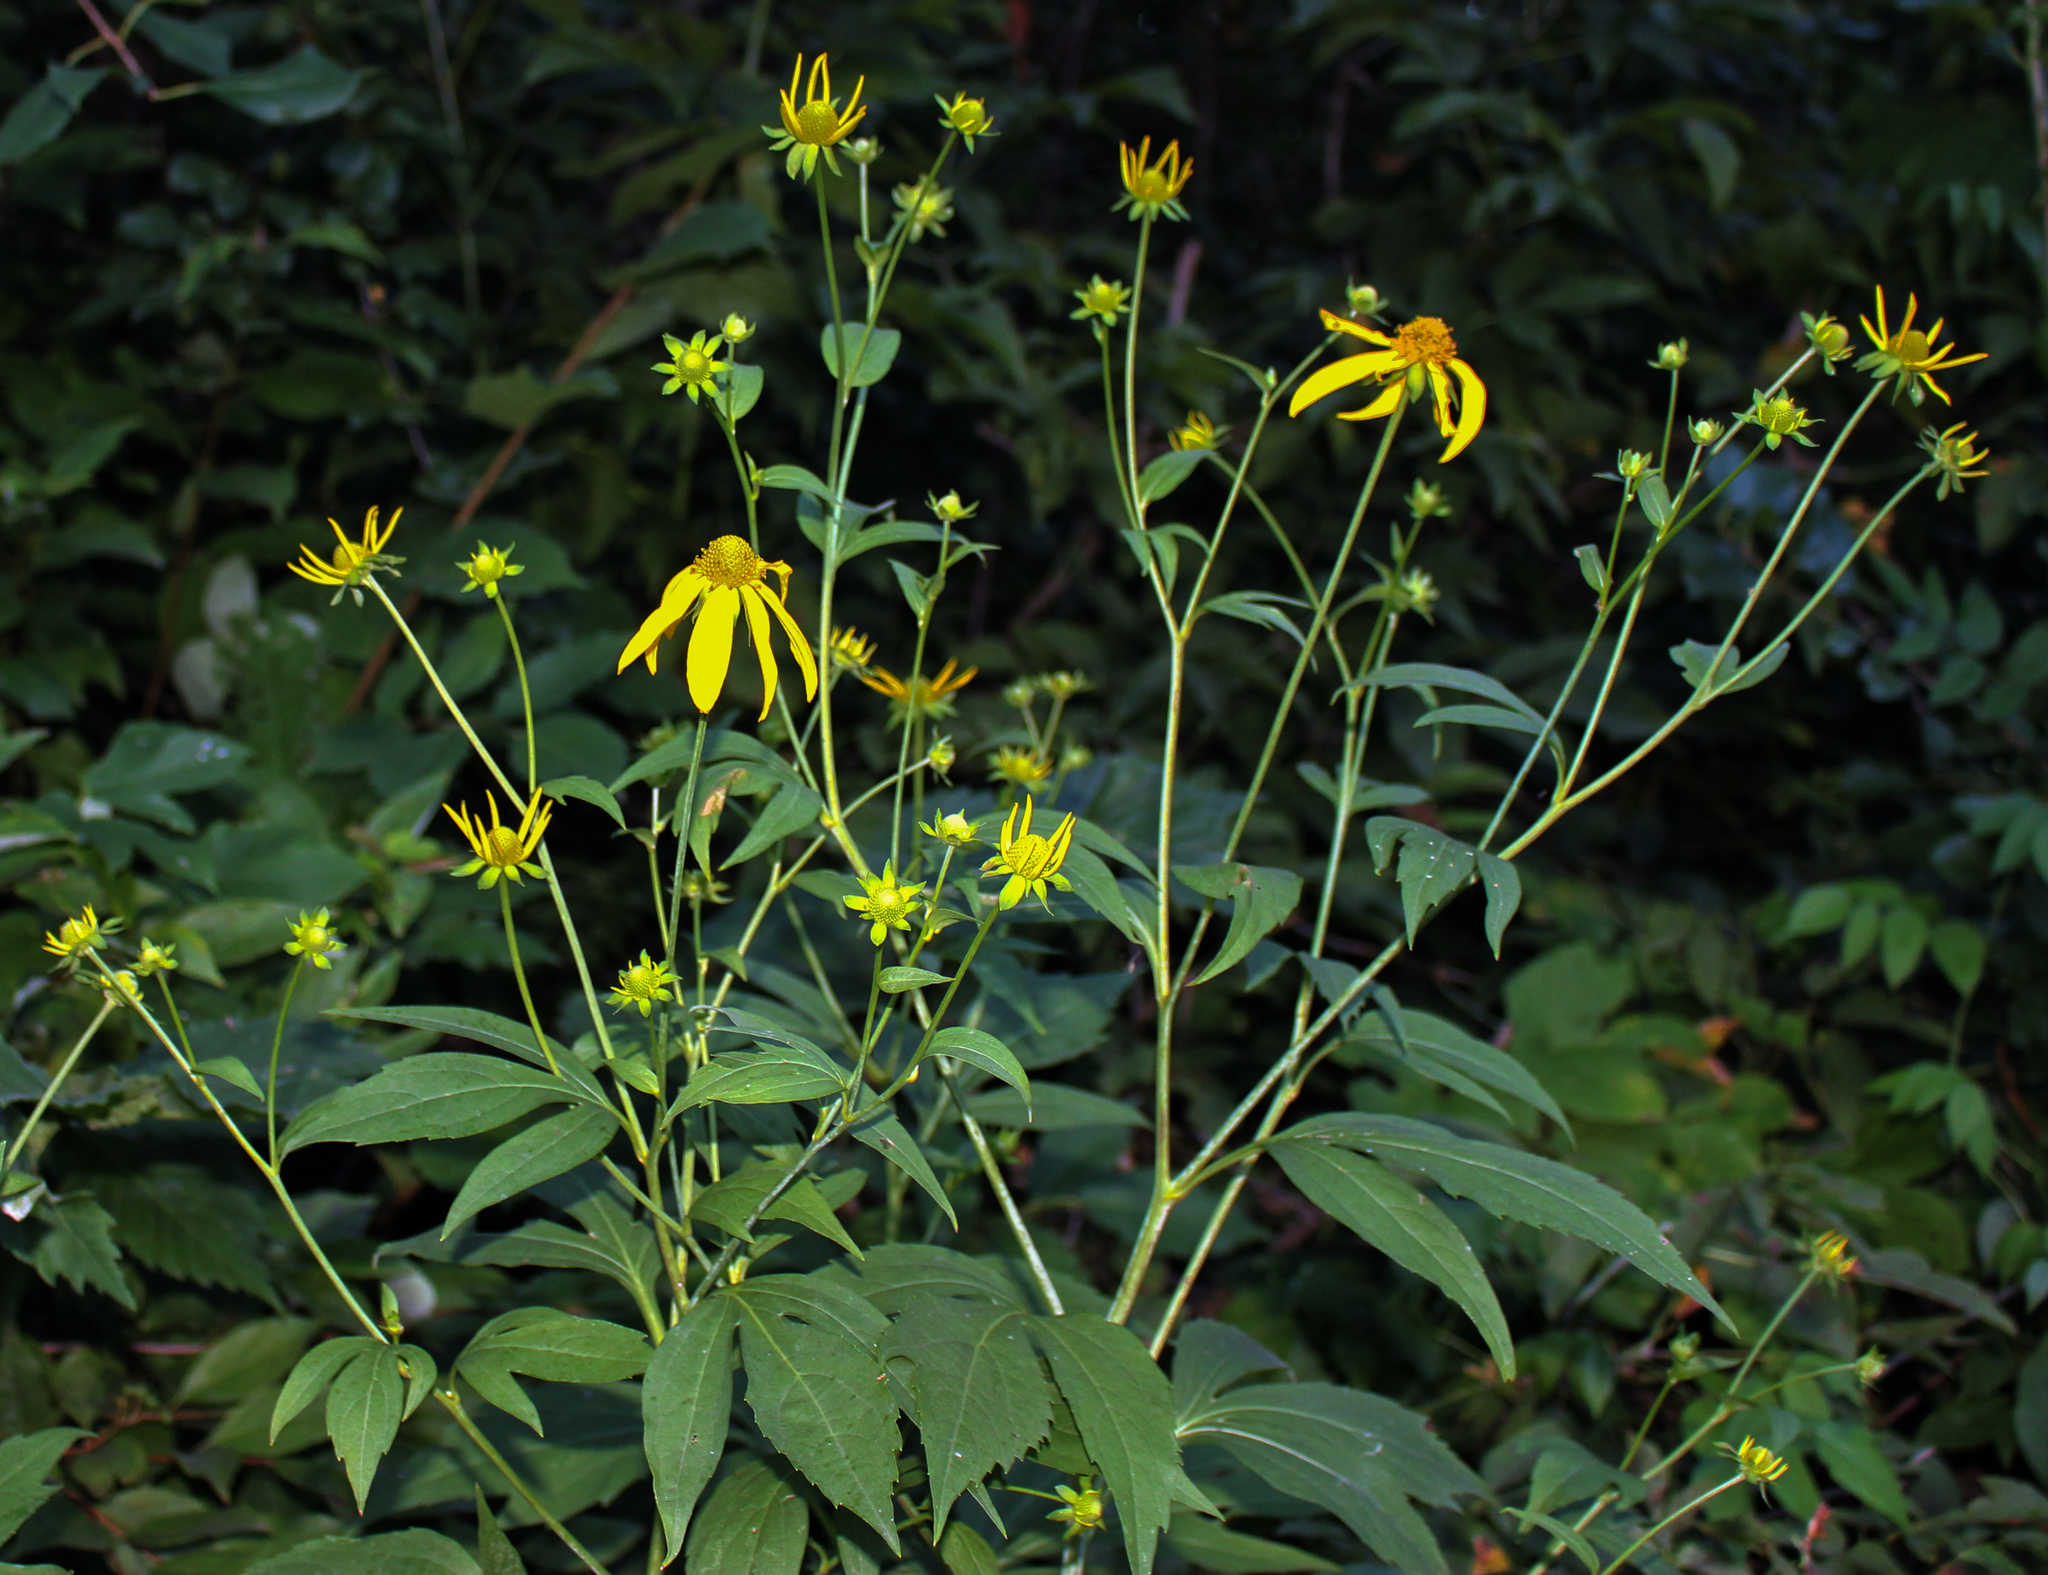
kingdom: Plantae
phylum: Tracheophyta
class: Magnoliopsida
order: Asterales
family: Asteraceae
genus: Rudbeckia
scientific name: Rudbeckia laciniata
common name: Coneflower
